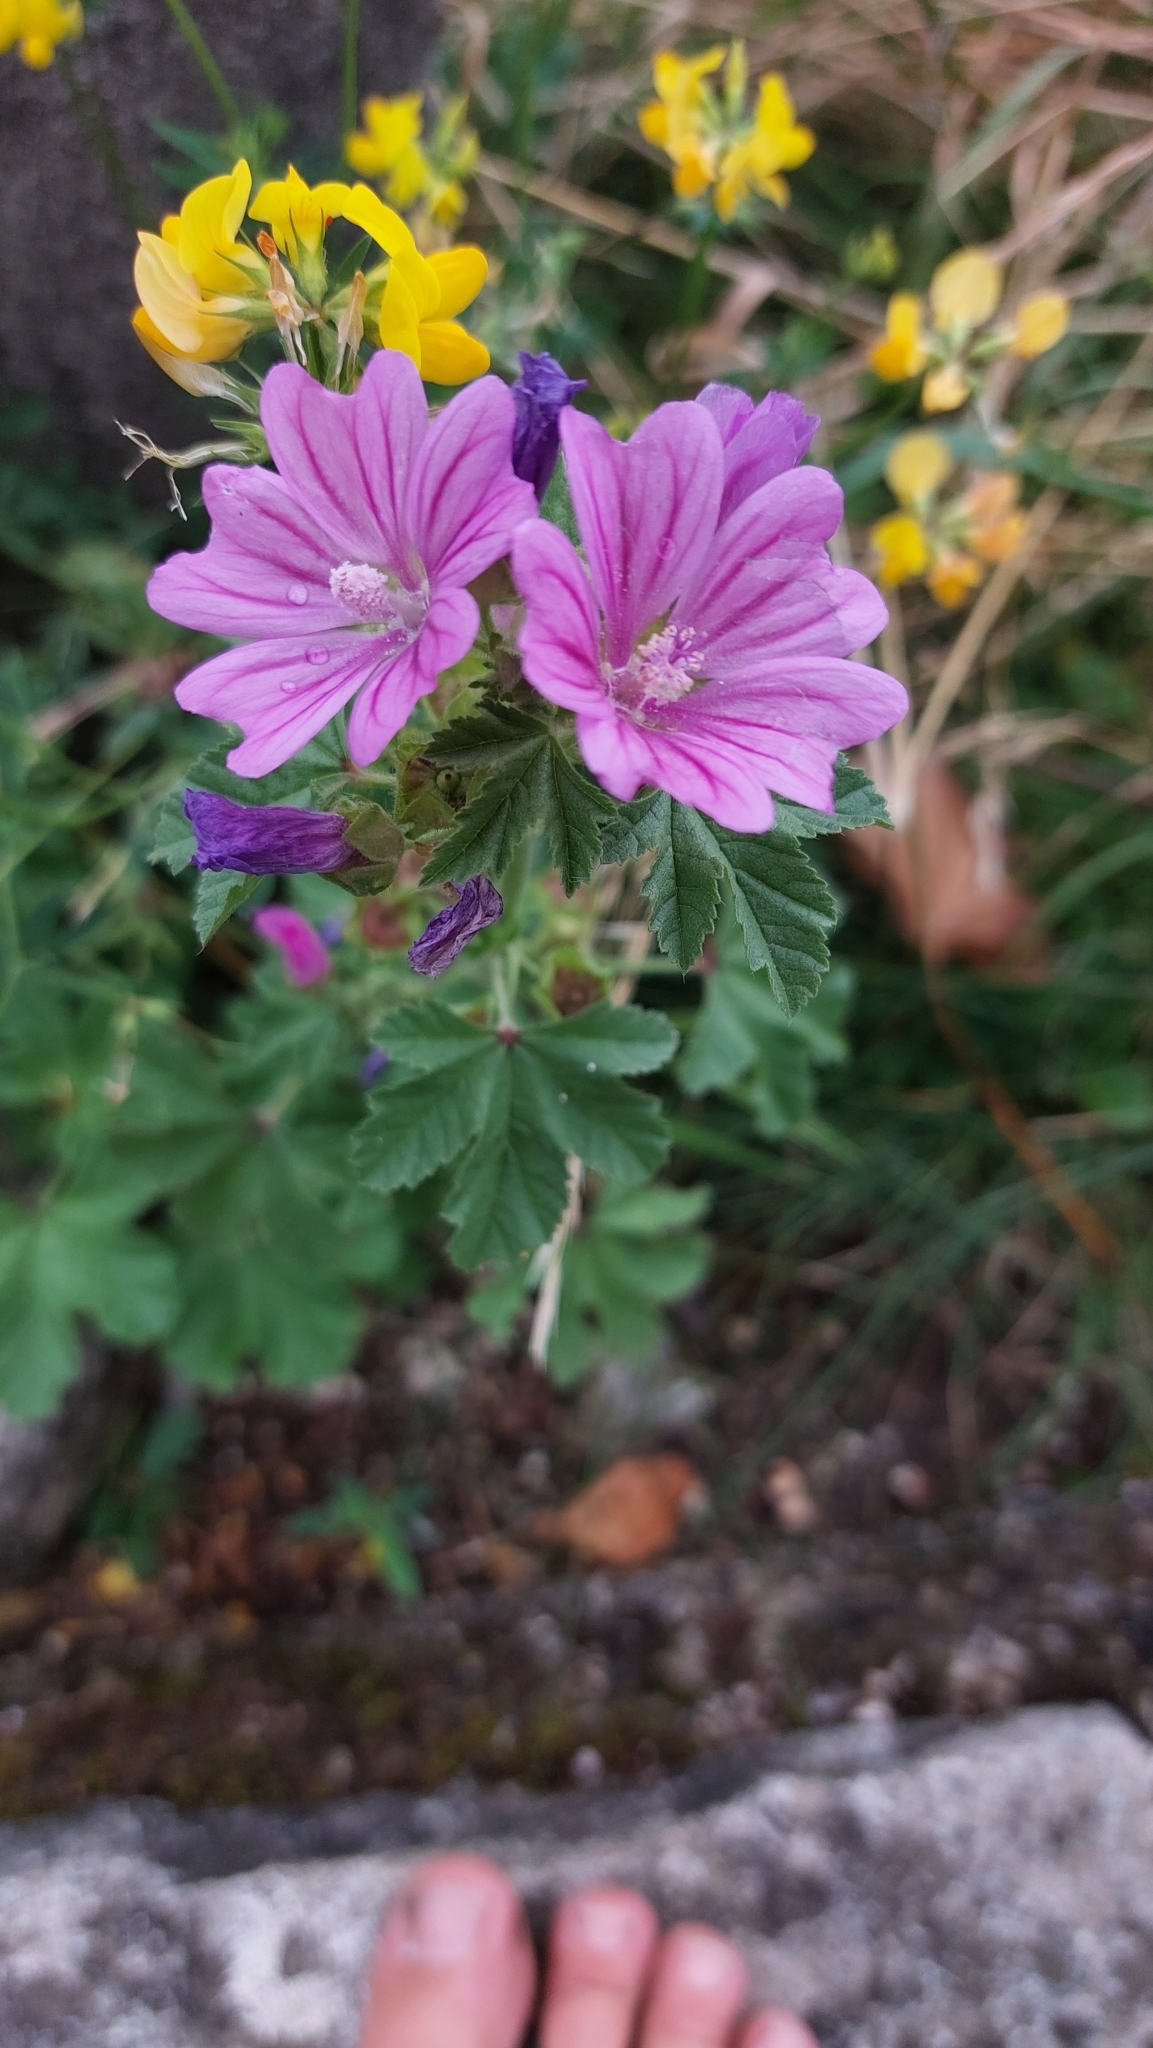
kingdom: Plantae
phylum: Tracheophyta
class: Magnoliopsida
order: Malvales
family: Malvaceae
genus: Malva
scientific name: Malva sylvestris
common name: Common mallow
